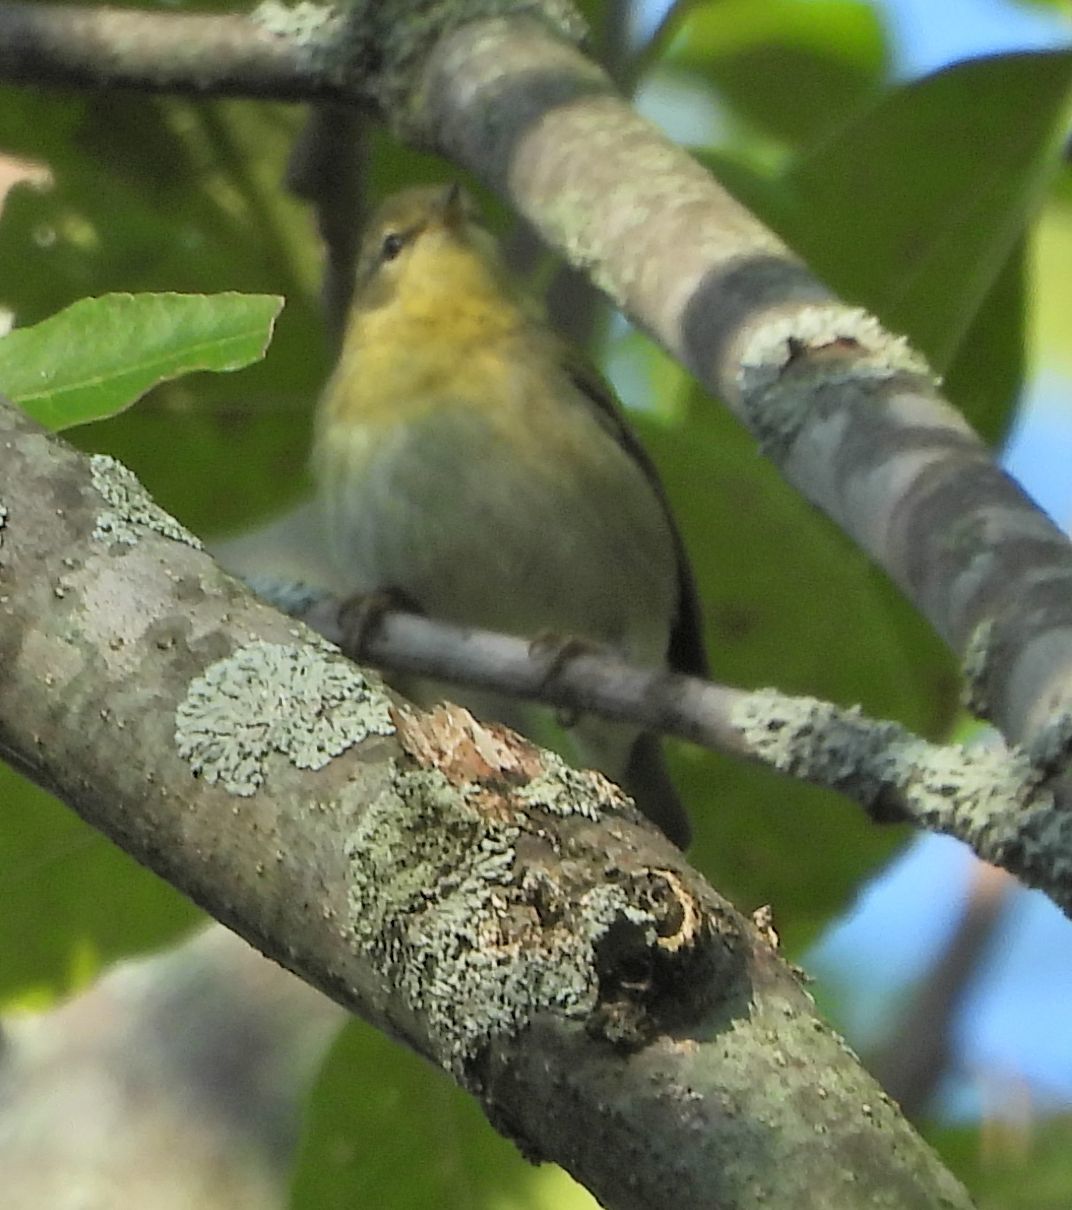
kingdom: Animalia
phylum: Chordata
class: Aves
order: Passeriformes
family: Parulidae
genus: Leiothlypis
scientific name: Leiothlypis peregrina
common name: Tennessee warbler
